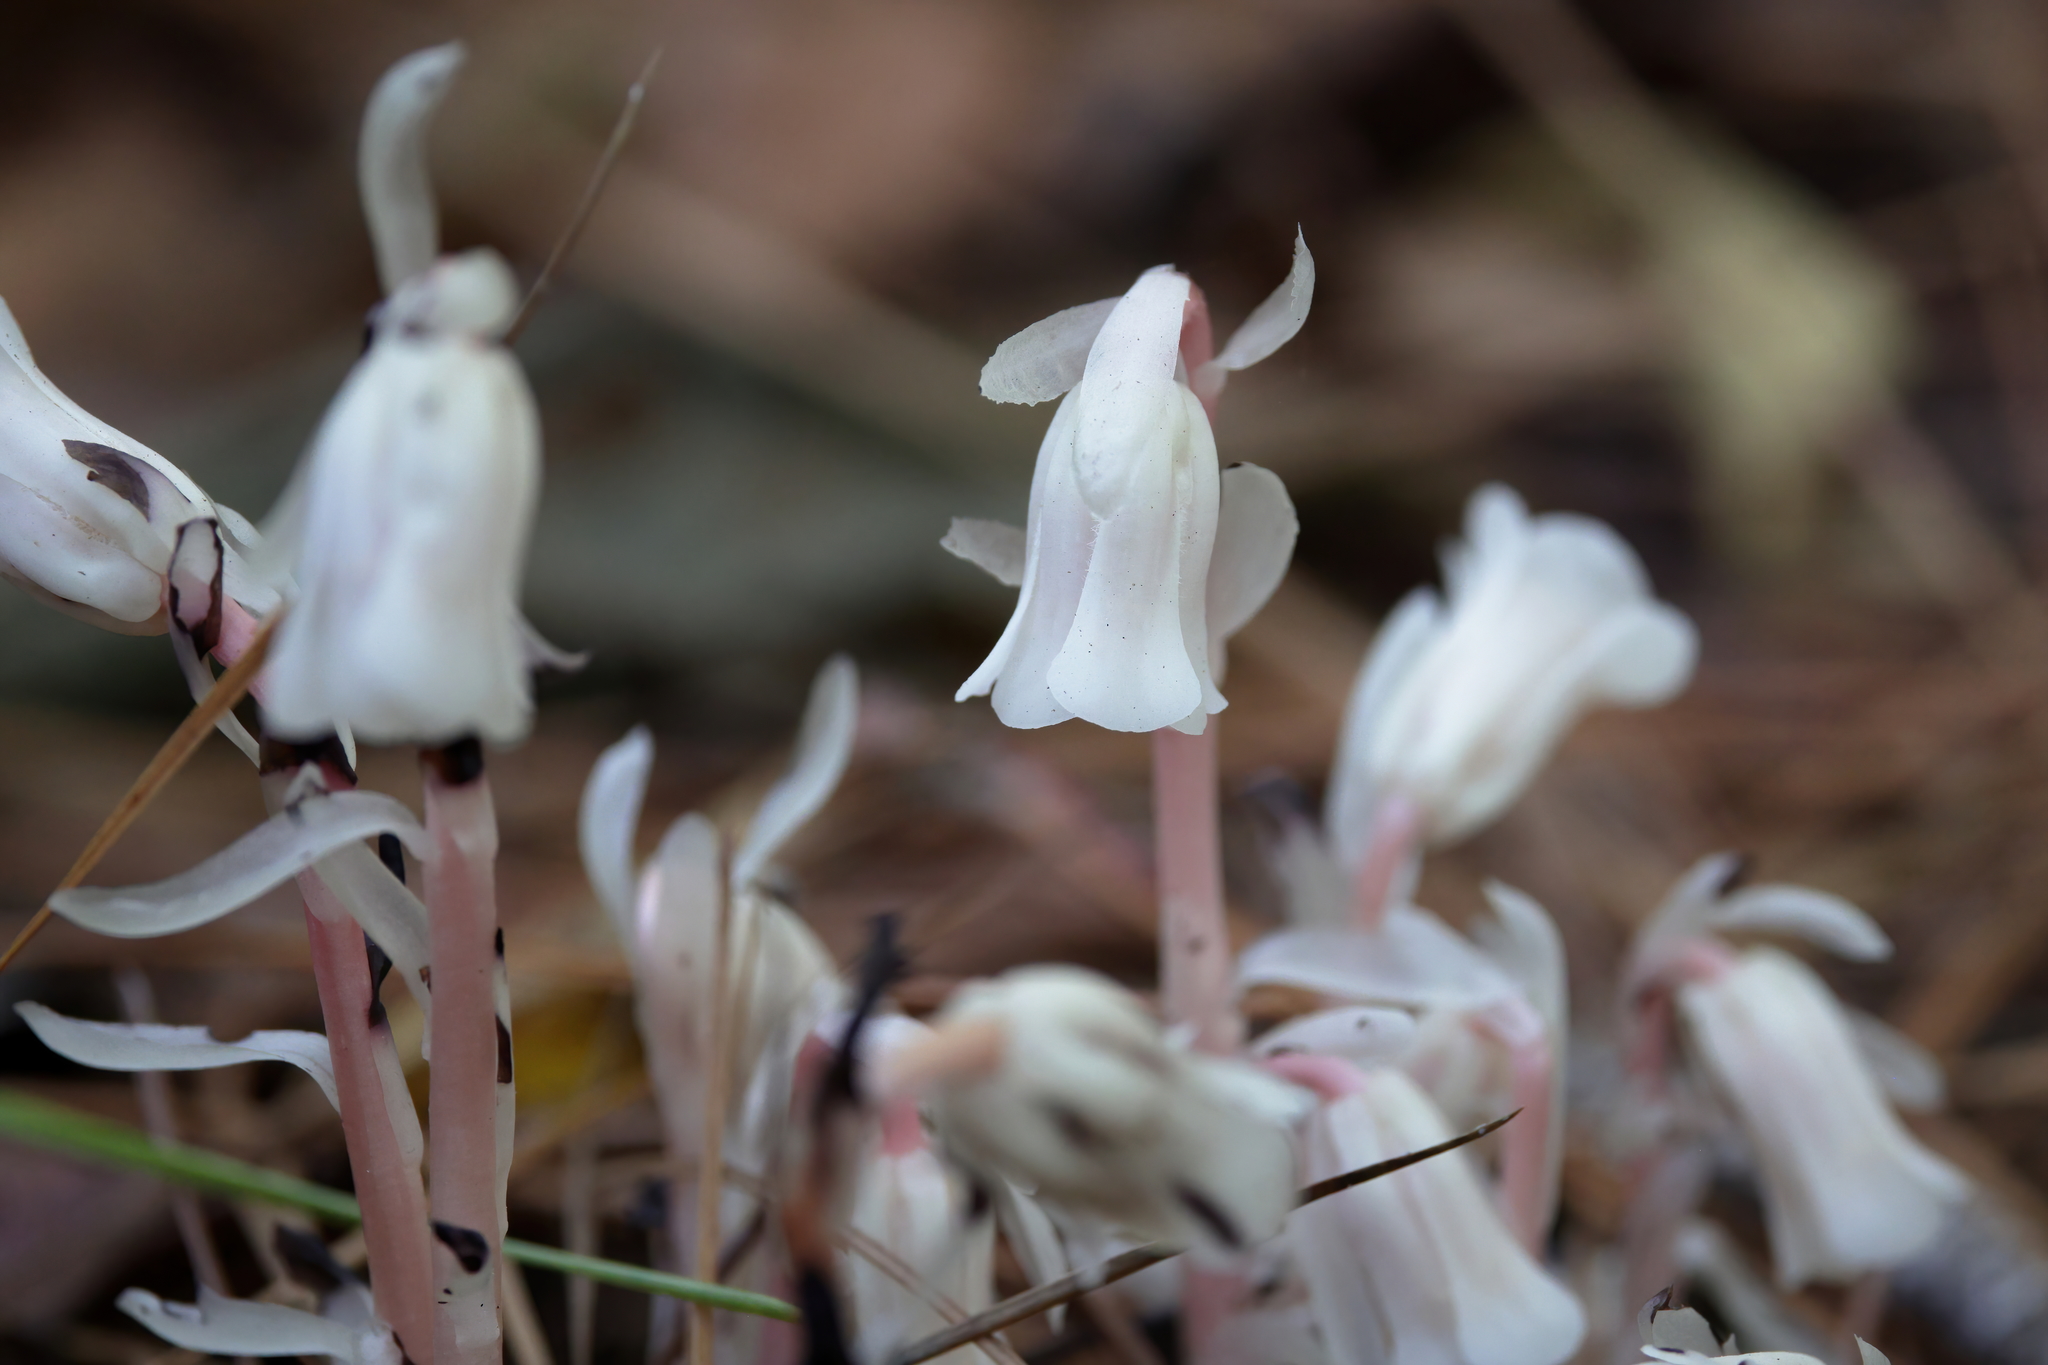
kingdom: Plantae
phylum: Tracheophyta
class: Magnoliopsida
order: Ericales
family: Ericaceae
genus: Monotropa
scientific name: Monotropa uniflora
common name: Convulsion root
